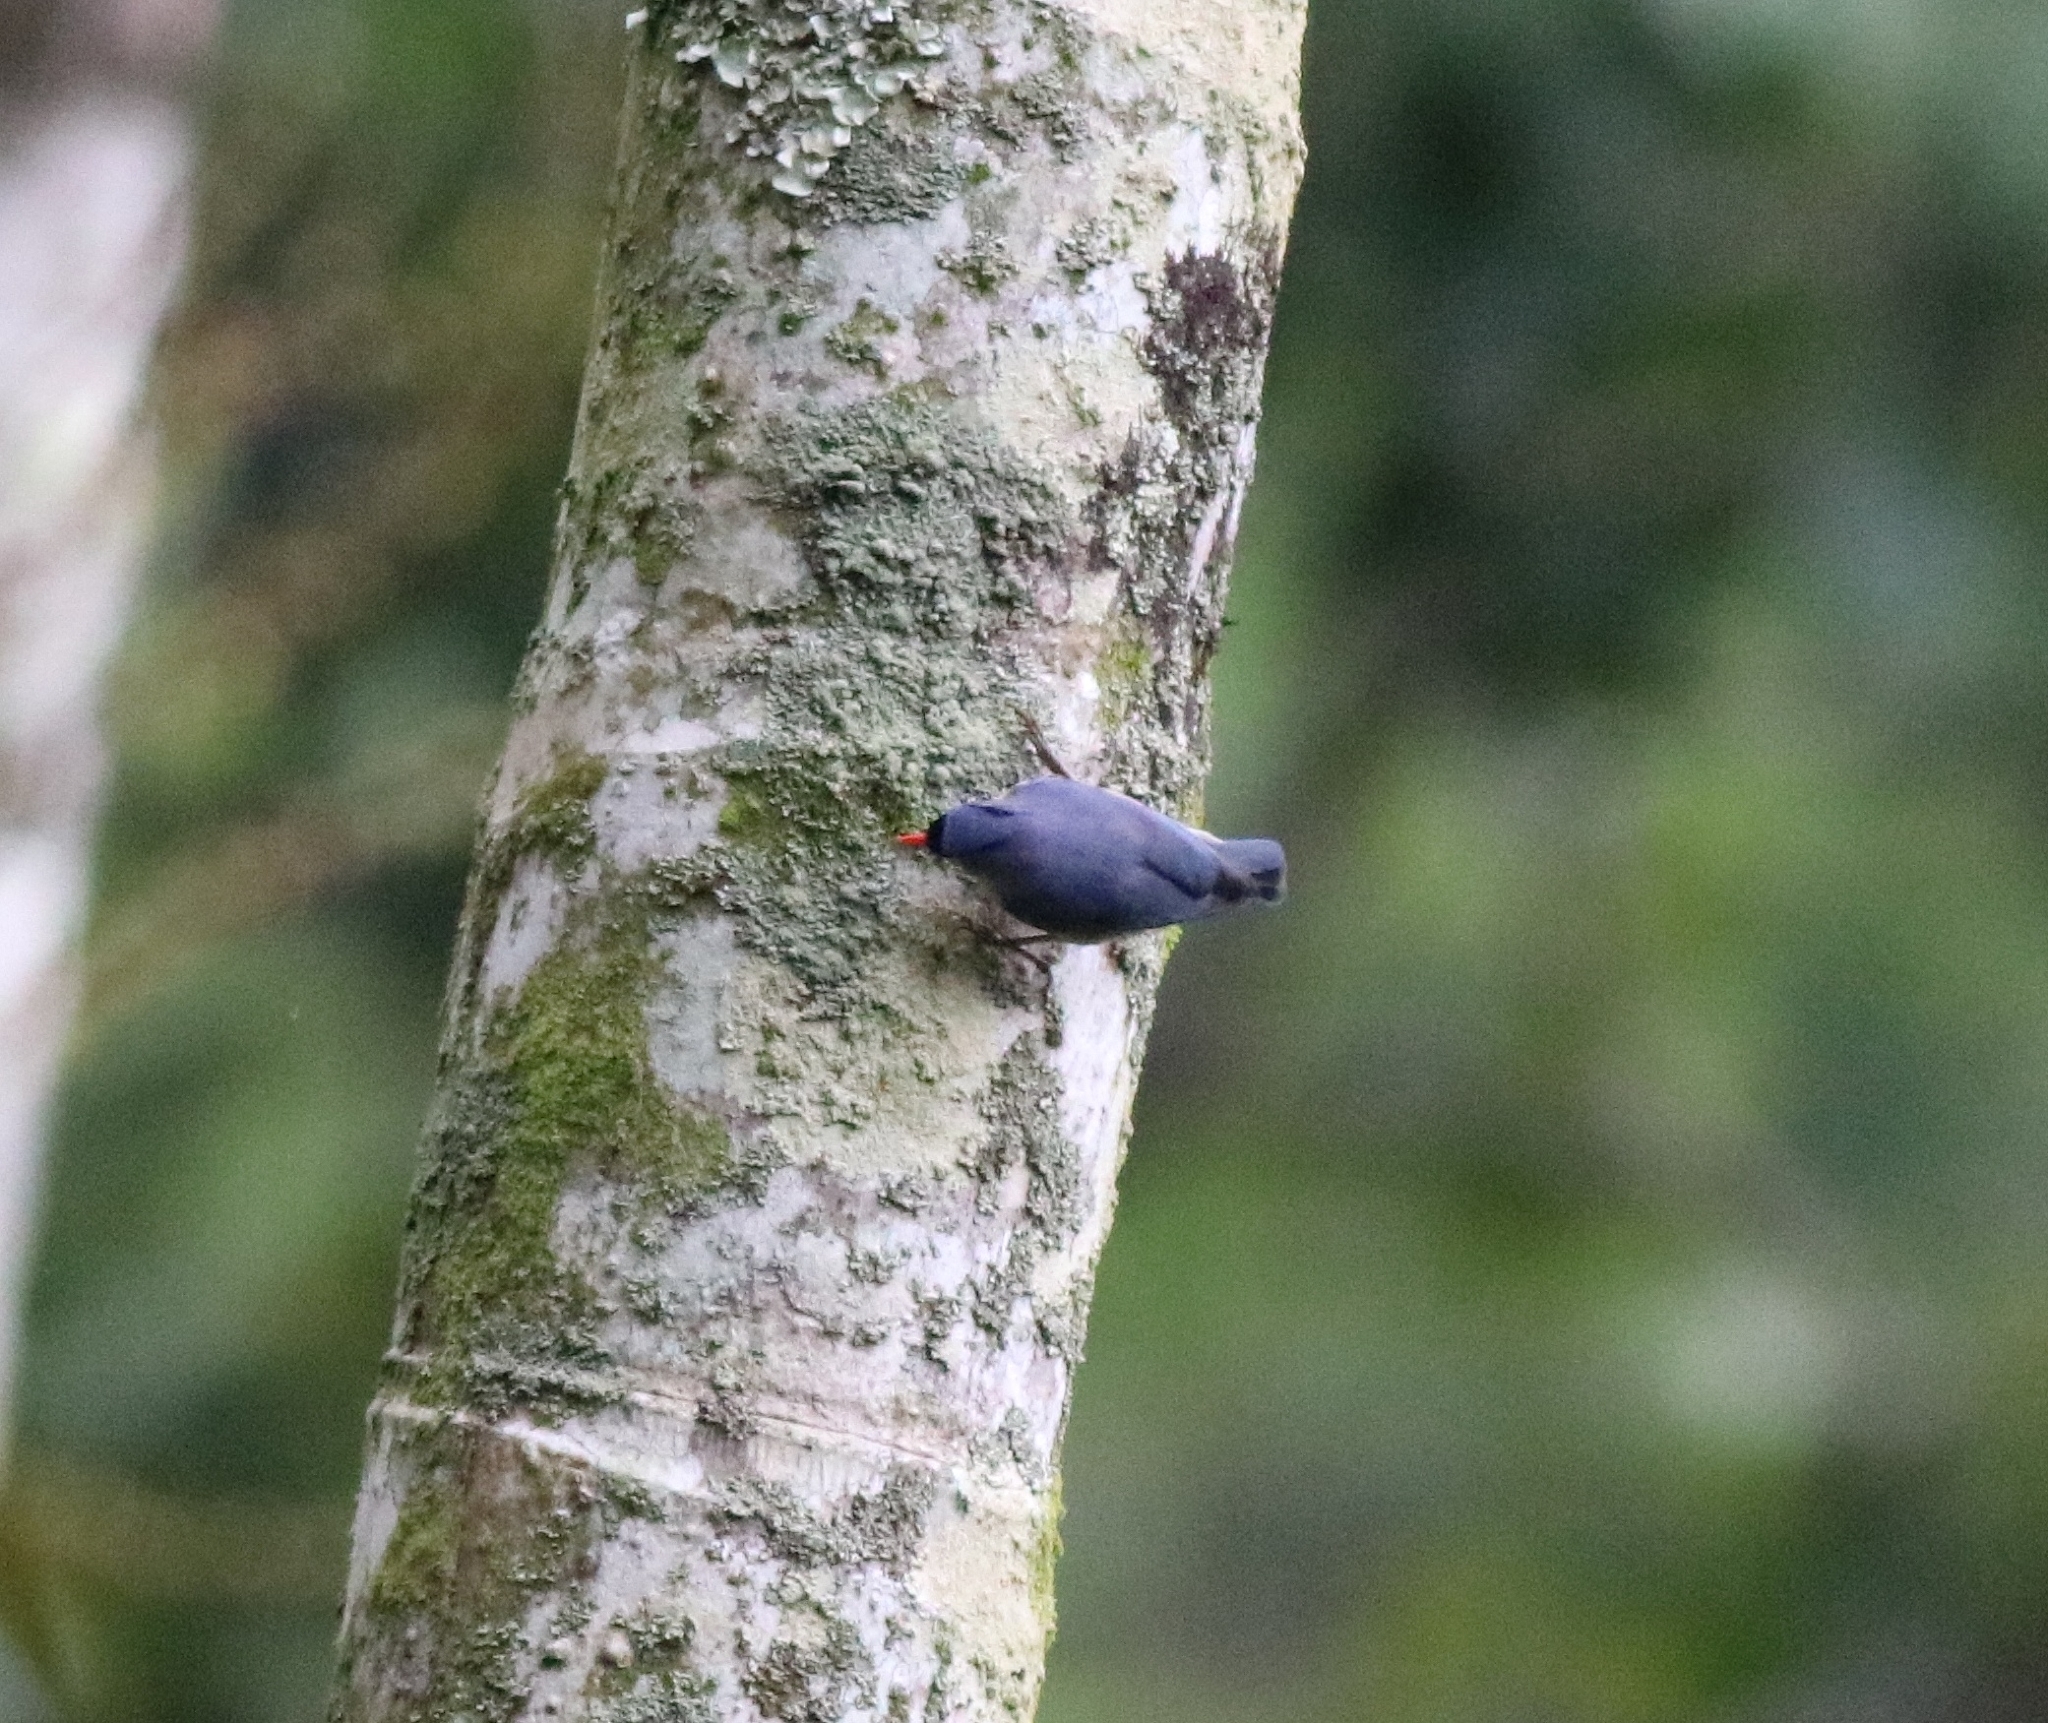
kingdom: Animalia
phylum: Chordata
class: Aves
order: Passeriformes
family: Sittidae
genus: Sitta
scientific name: Sitta frontalis
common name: Velvet-fronted nuthatch
